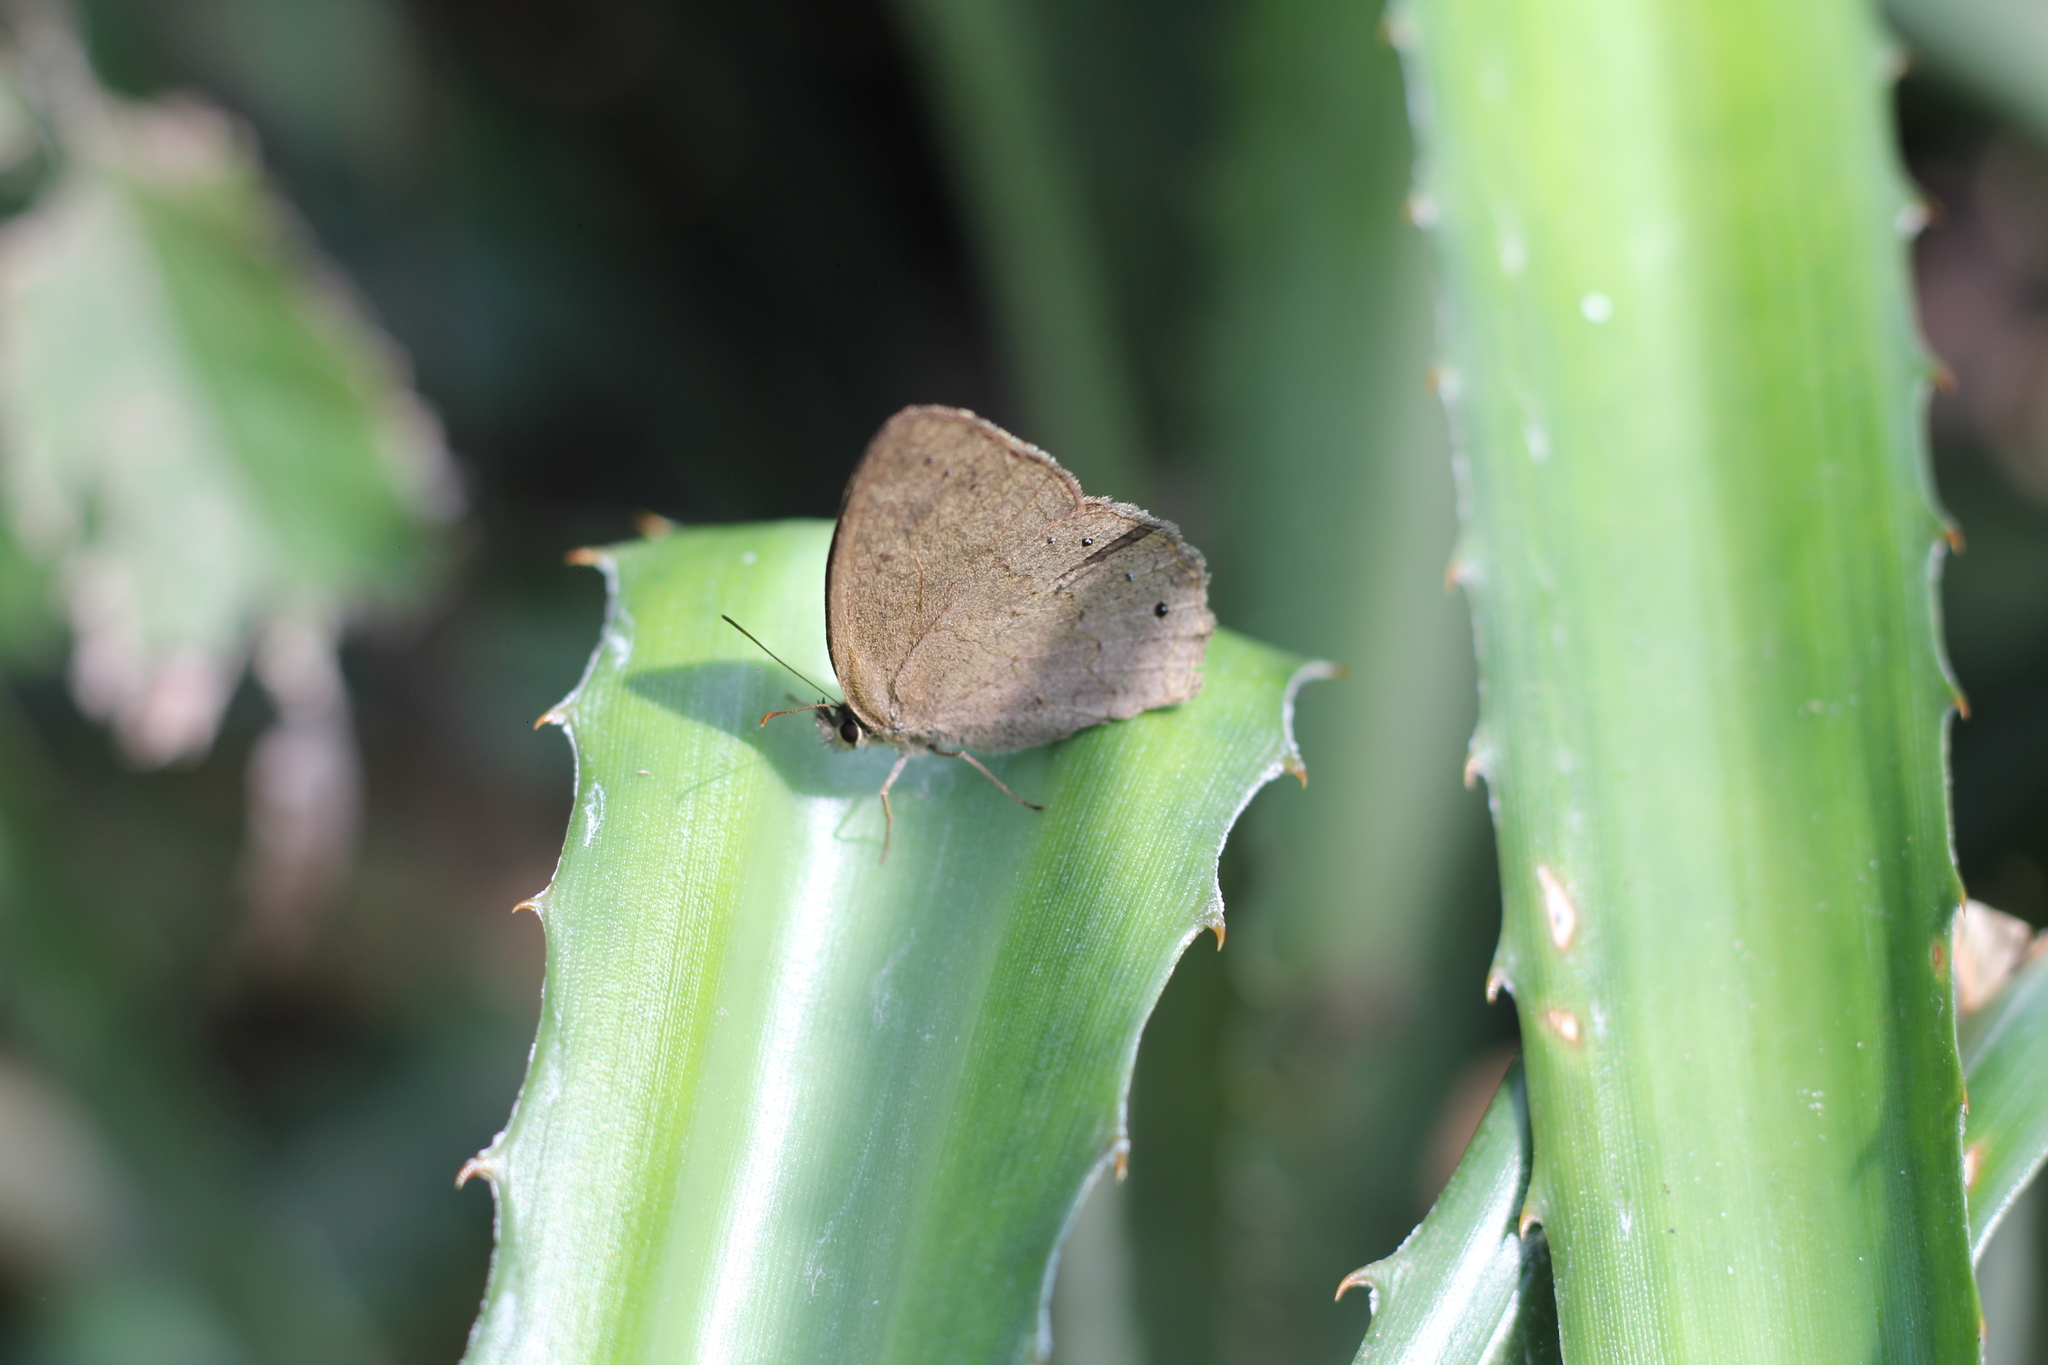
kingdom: Animalia
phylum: Arthropoda
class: Insecta
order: Lepidoptera
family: Nymphalidae
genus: Euptychia
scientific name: Euptychia Cissia eous
